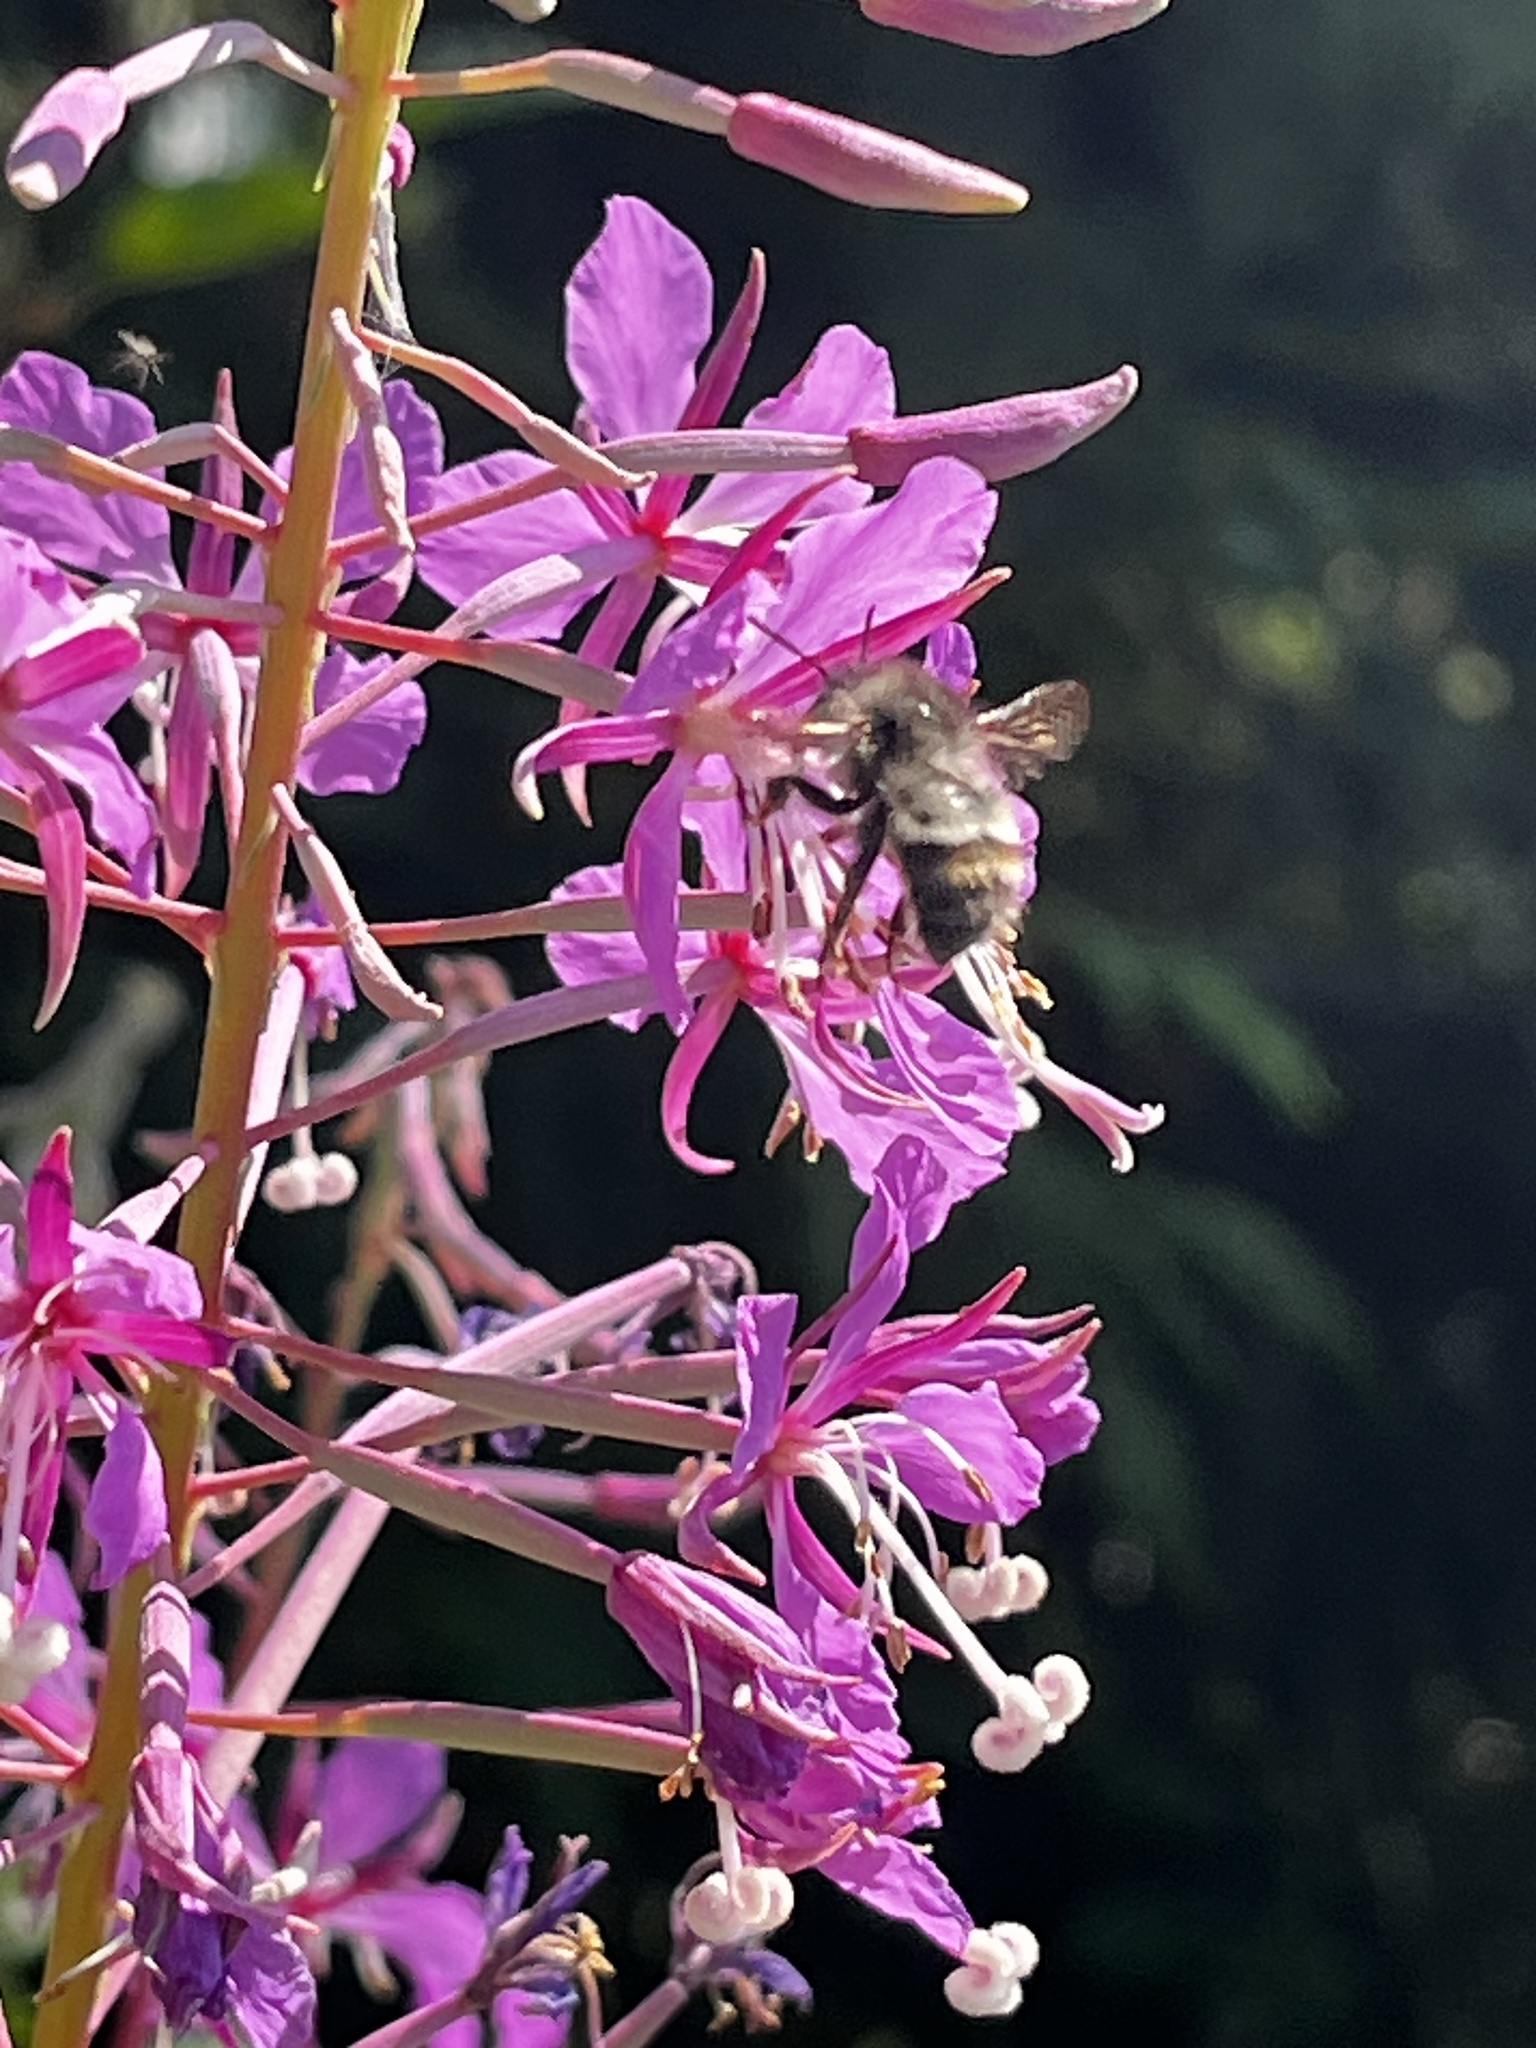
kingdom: Plantae
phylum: Tracheophyta
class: Magnoliopsida
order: Myrtales
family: Onagraceae
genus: Chamaenerion
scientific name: Chamaenerion angustifolium
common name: Fireweed
